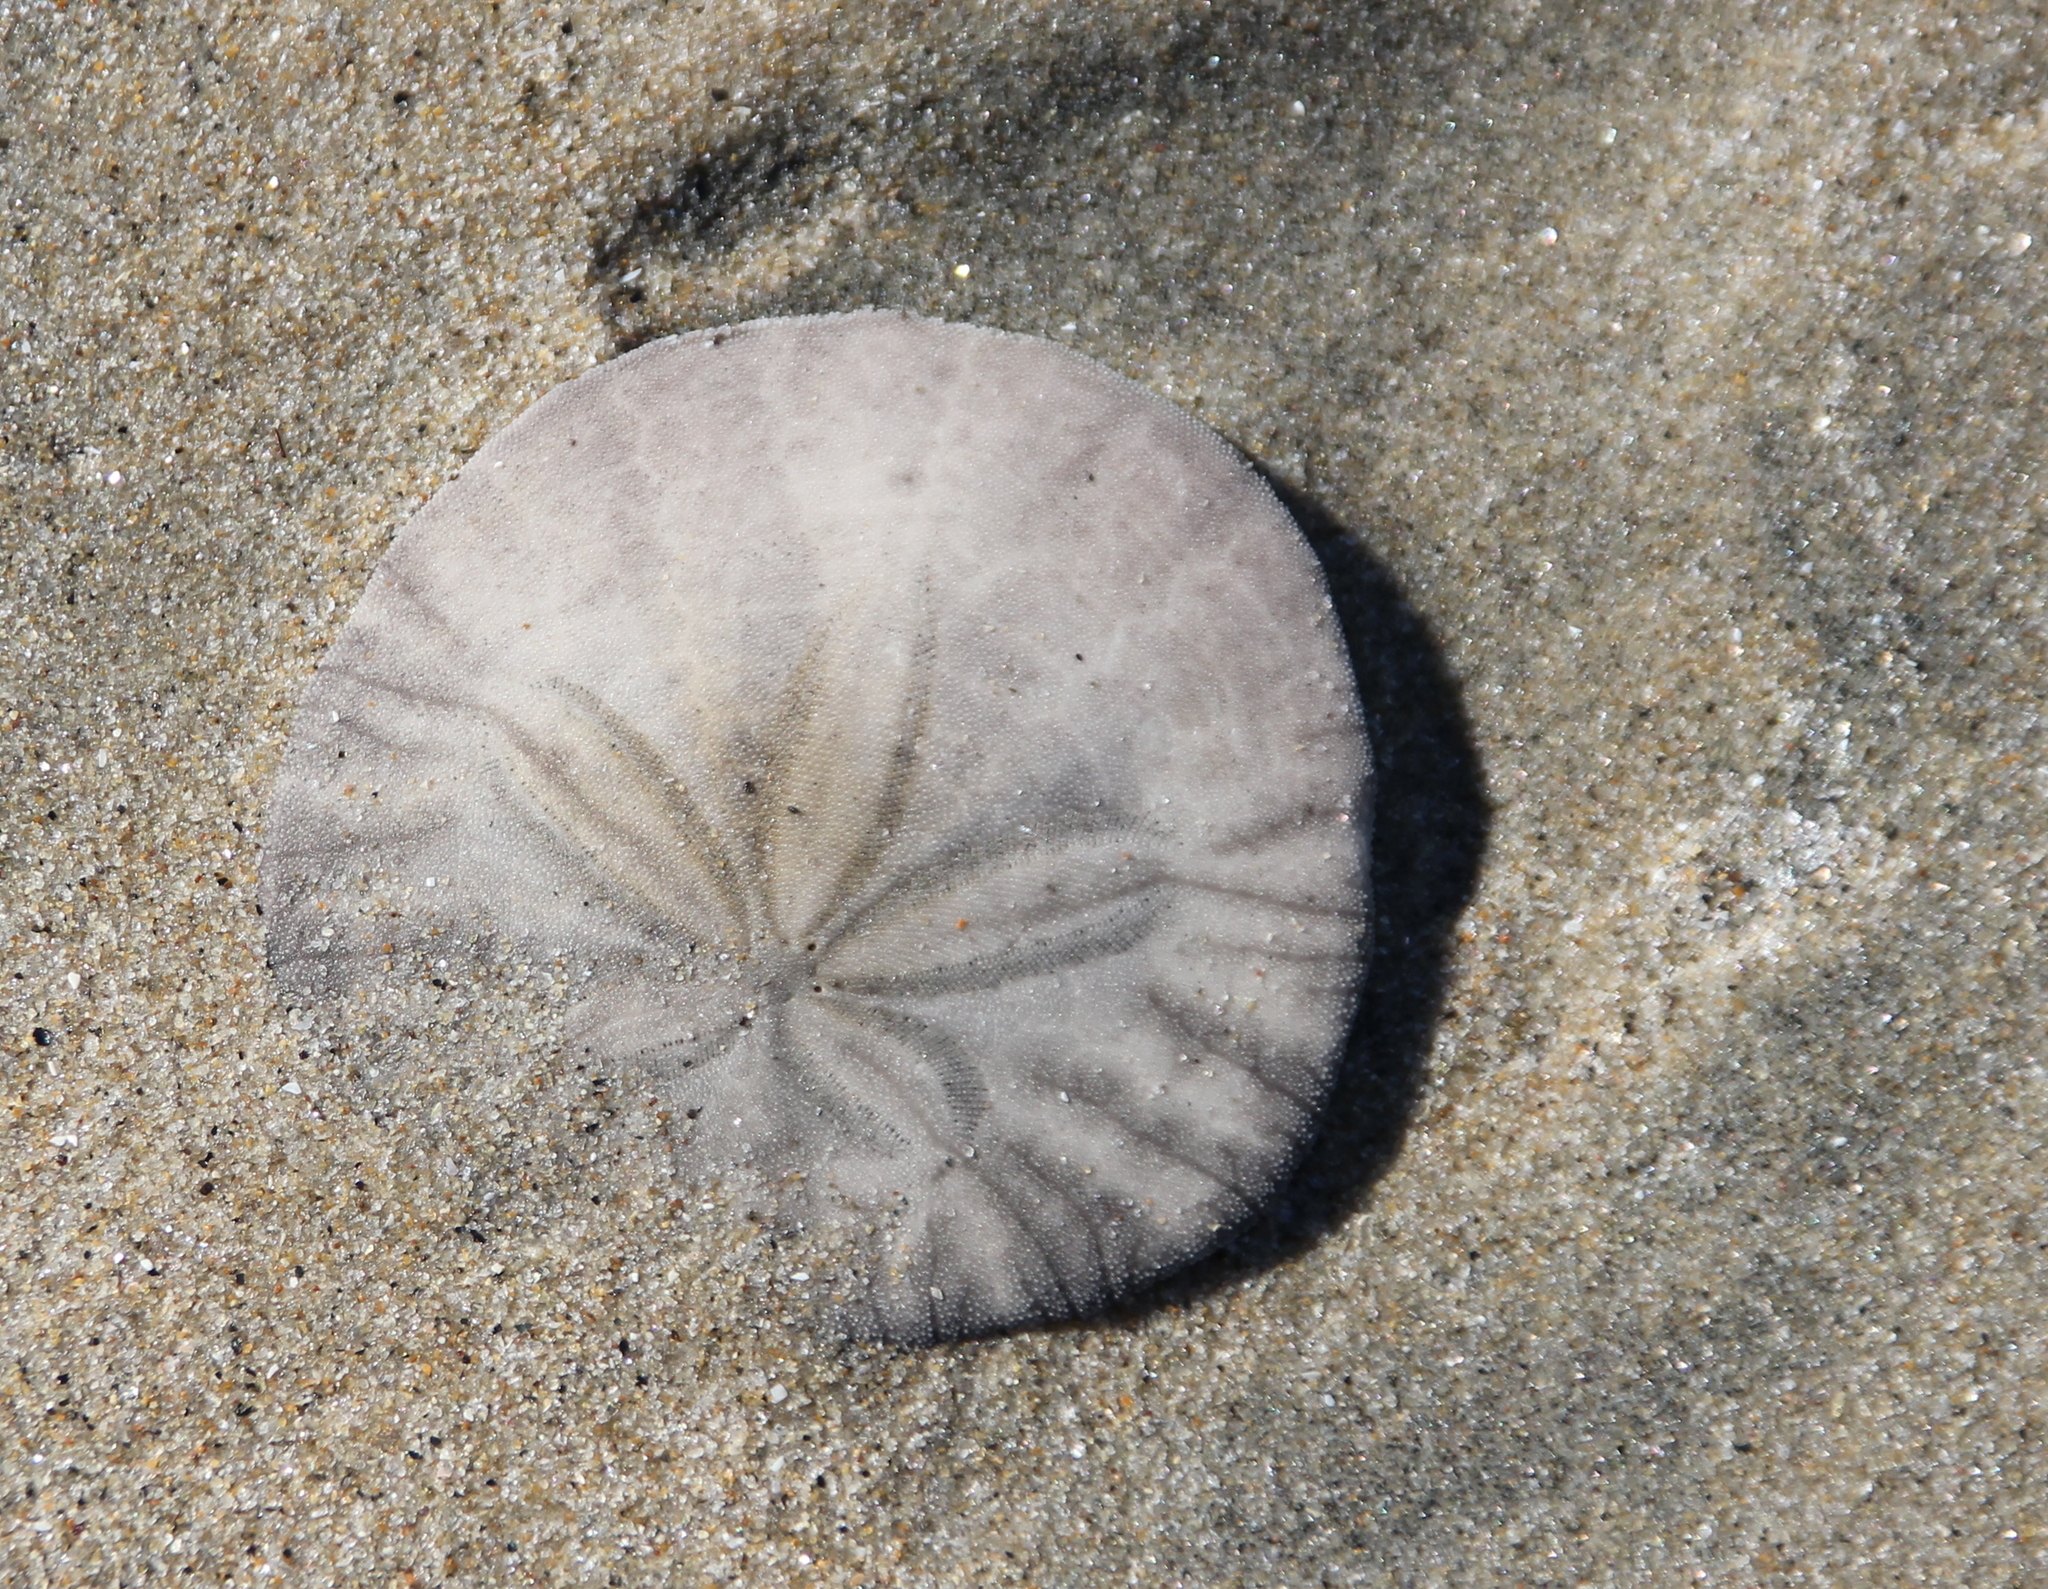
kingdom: Animalia
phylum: Echinodermata
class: Echinoidea
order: Echinolampadacea
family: Dendrasteridae
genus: Dendraster
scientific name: Dendraster excentricus
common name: Eccentric sand dollar sea urchin
